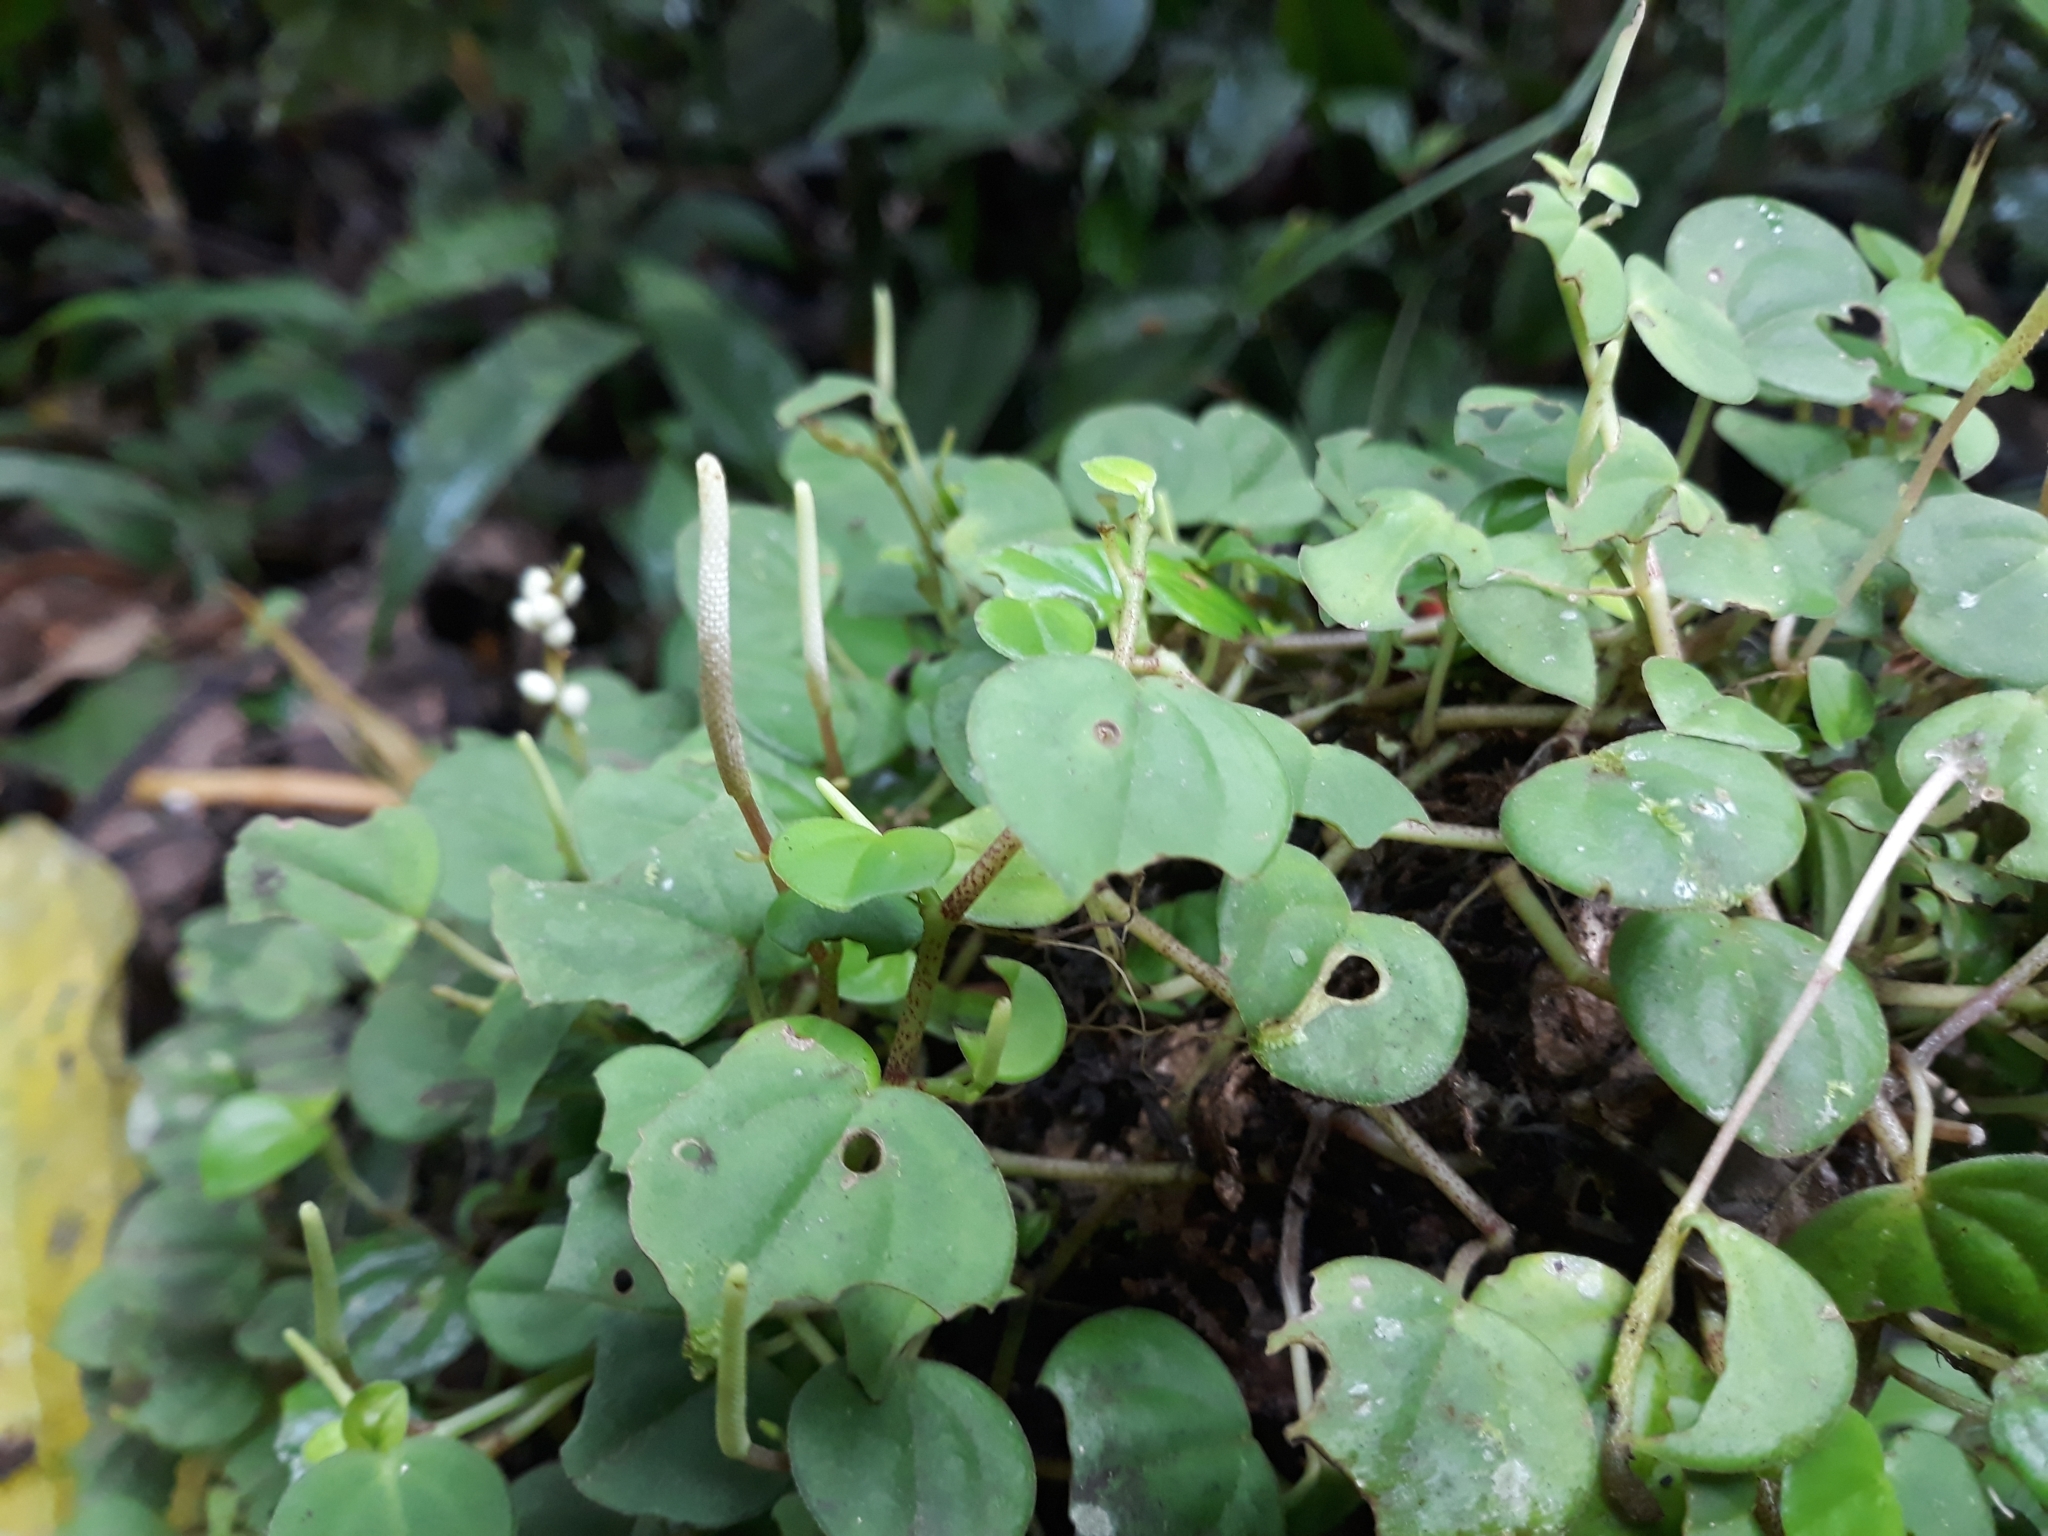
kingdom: Plantae
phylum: Tracheophyta
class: Magnoliopsida
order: Piperales
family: Piperaceae
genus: Peperomia
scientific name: Peperomia serpens
